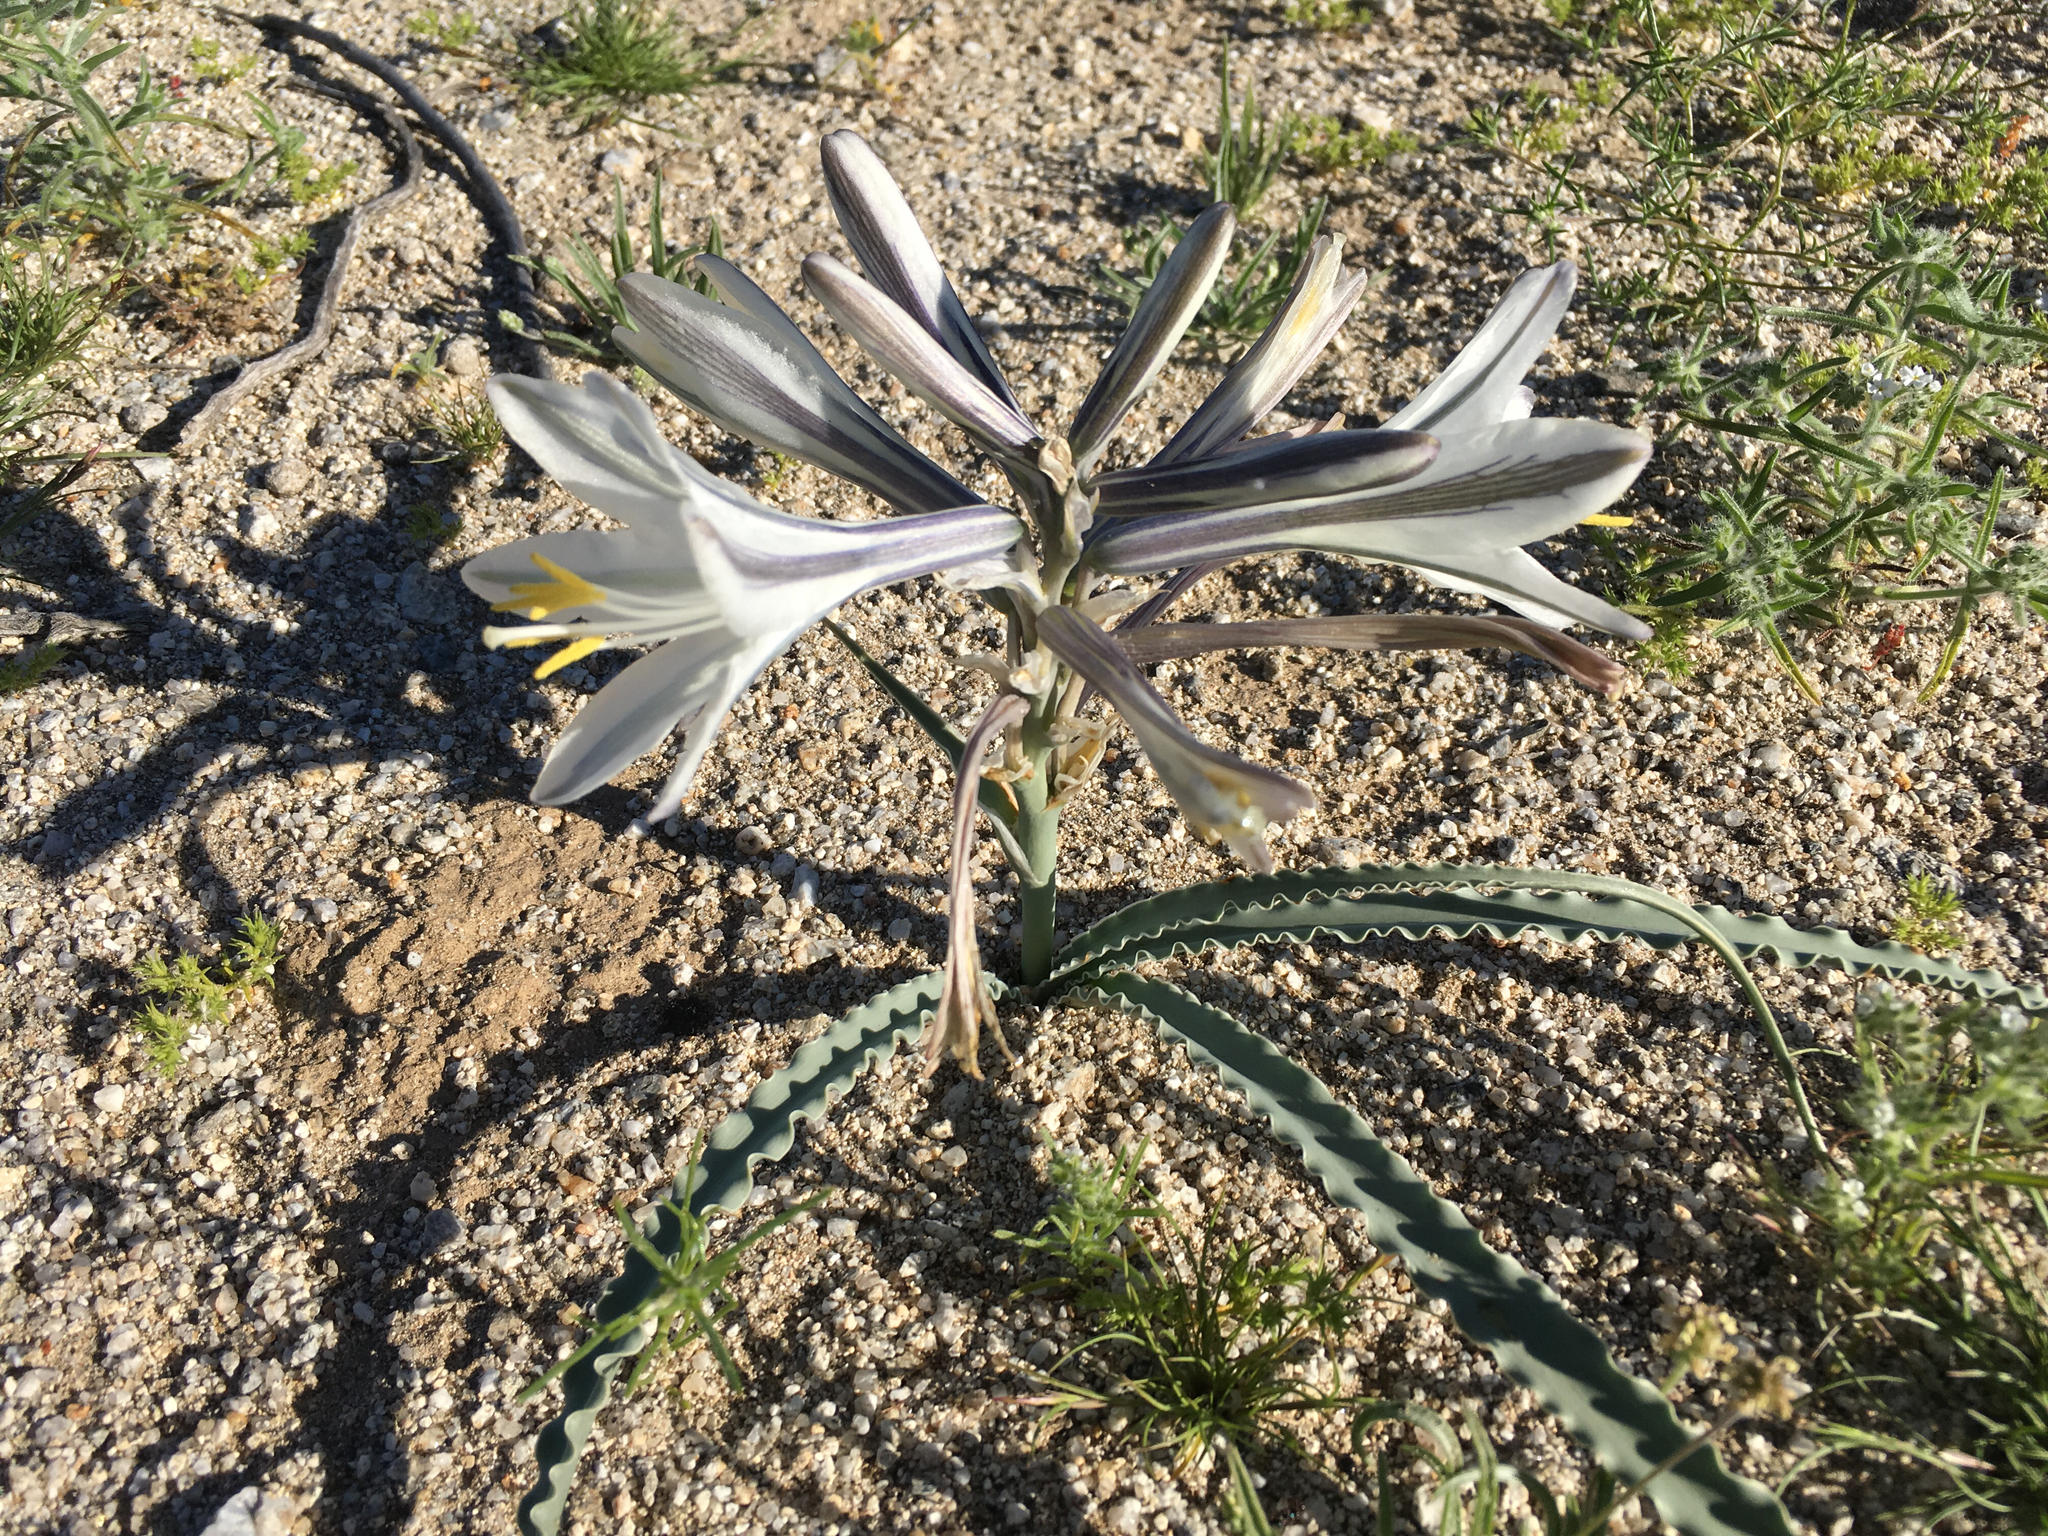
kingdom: Plantae
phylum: Tracheophyta
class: Liliopsida
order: Asparagales
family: Asparagaceae
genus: Hesperocallis
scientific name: Hesperocallis undulata
